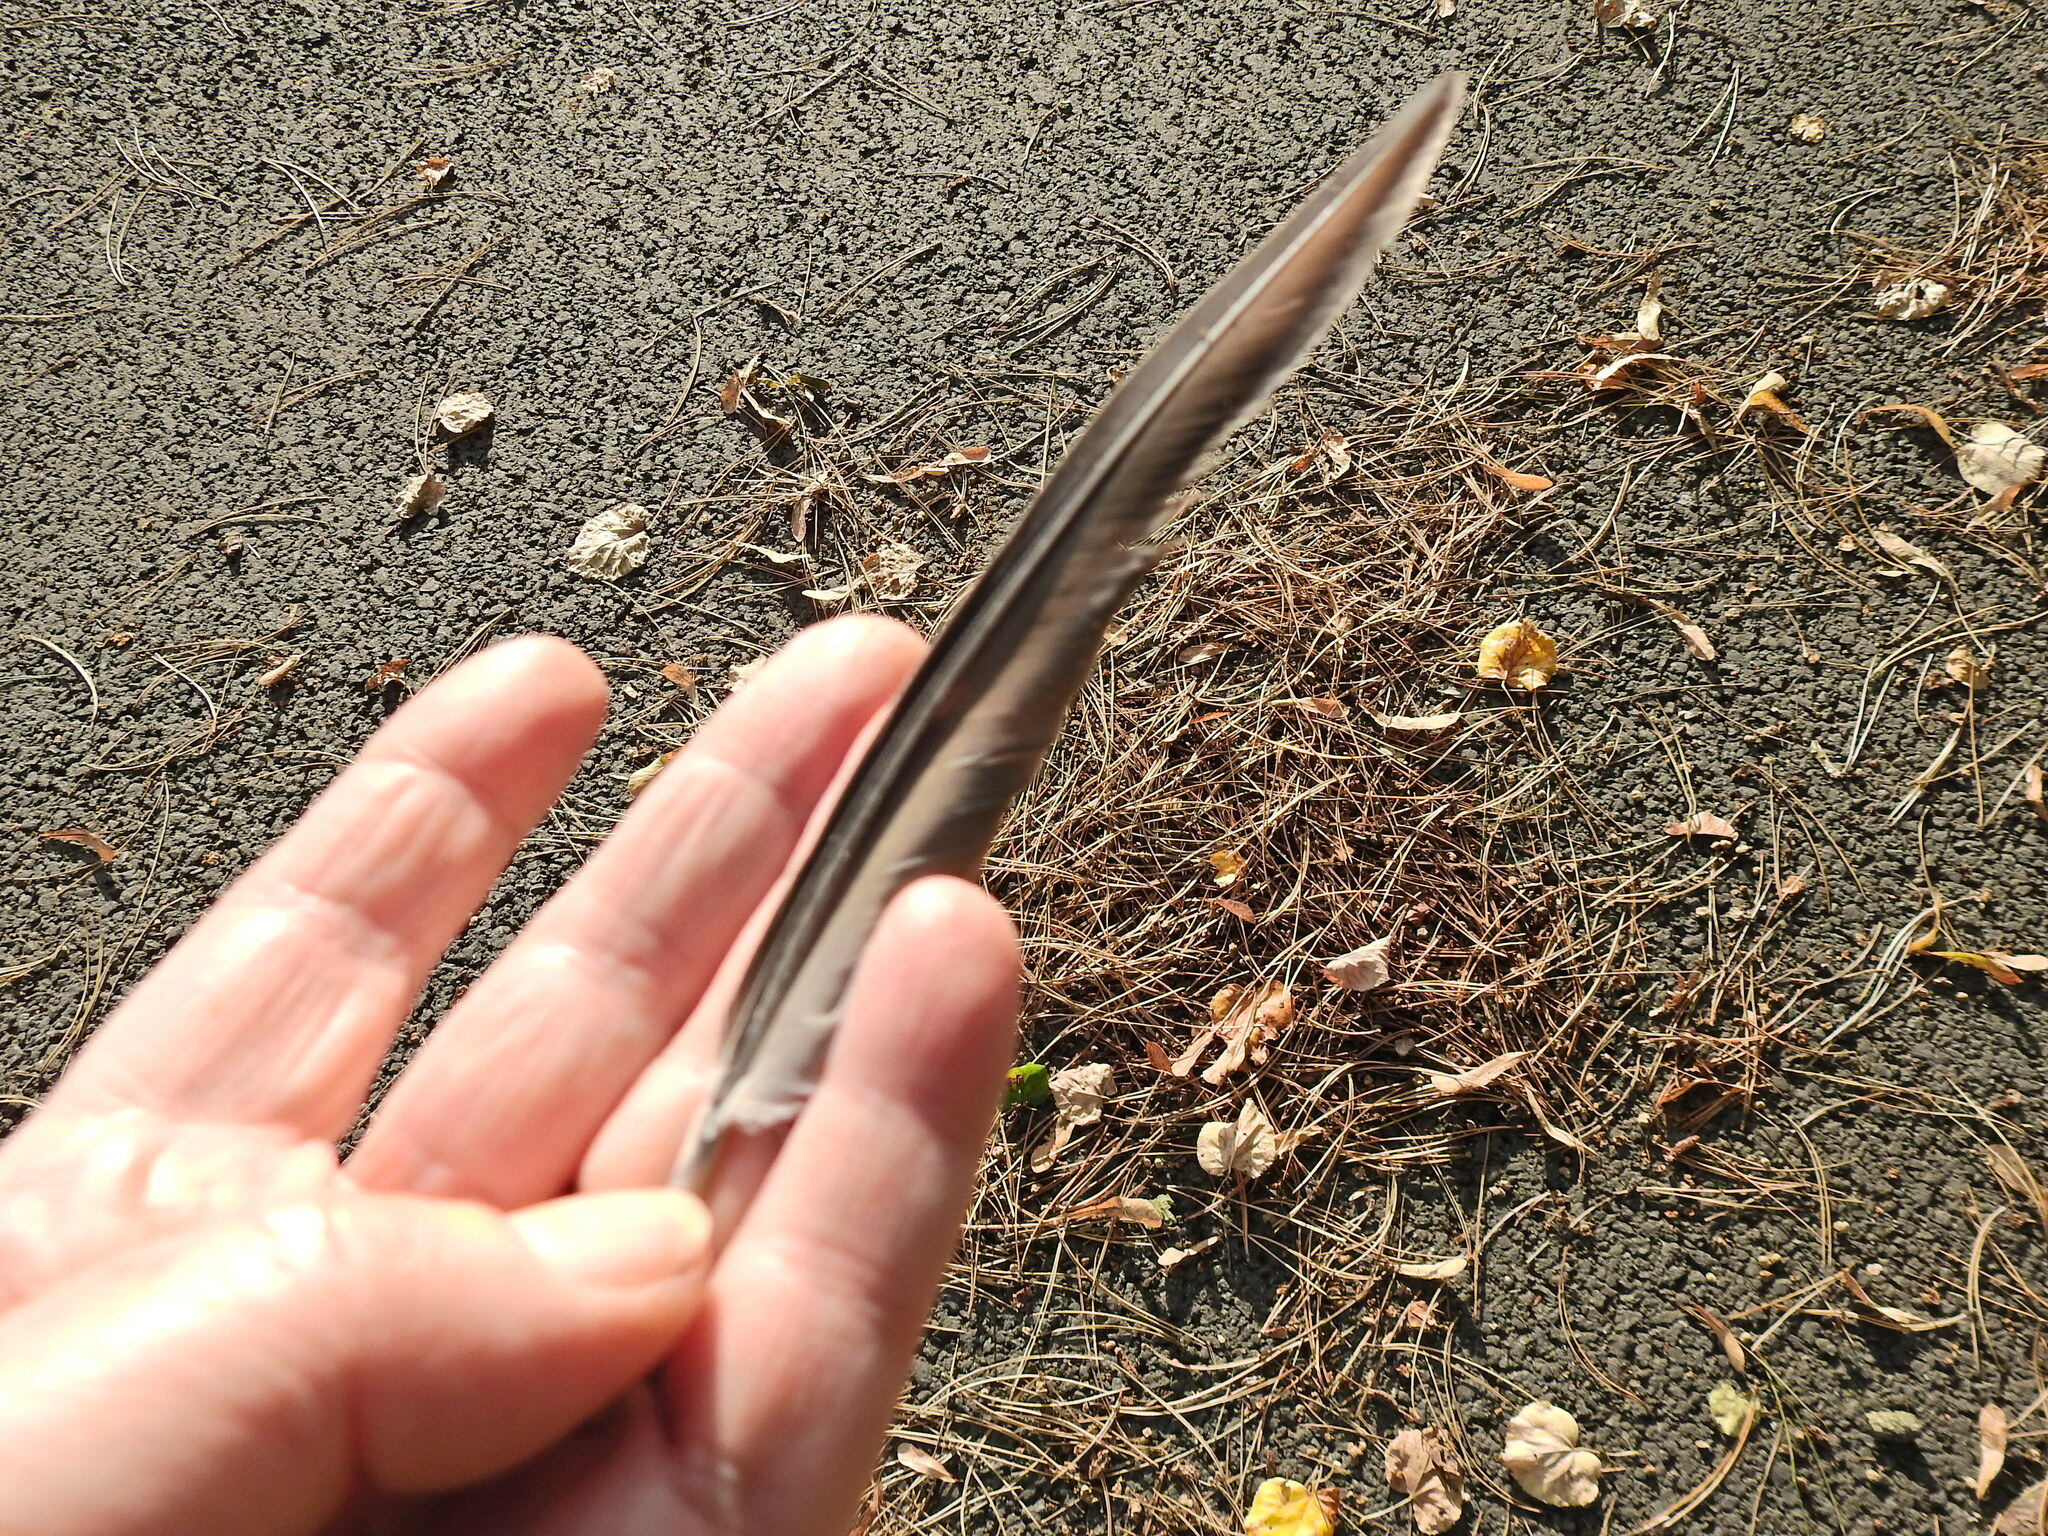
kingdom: Animalia
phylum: Chordata
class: Aves
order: Apodiformes
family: Apodidae
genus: Apus
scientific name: Apus apus
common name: Common swift
